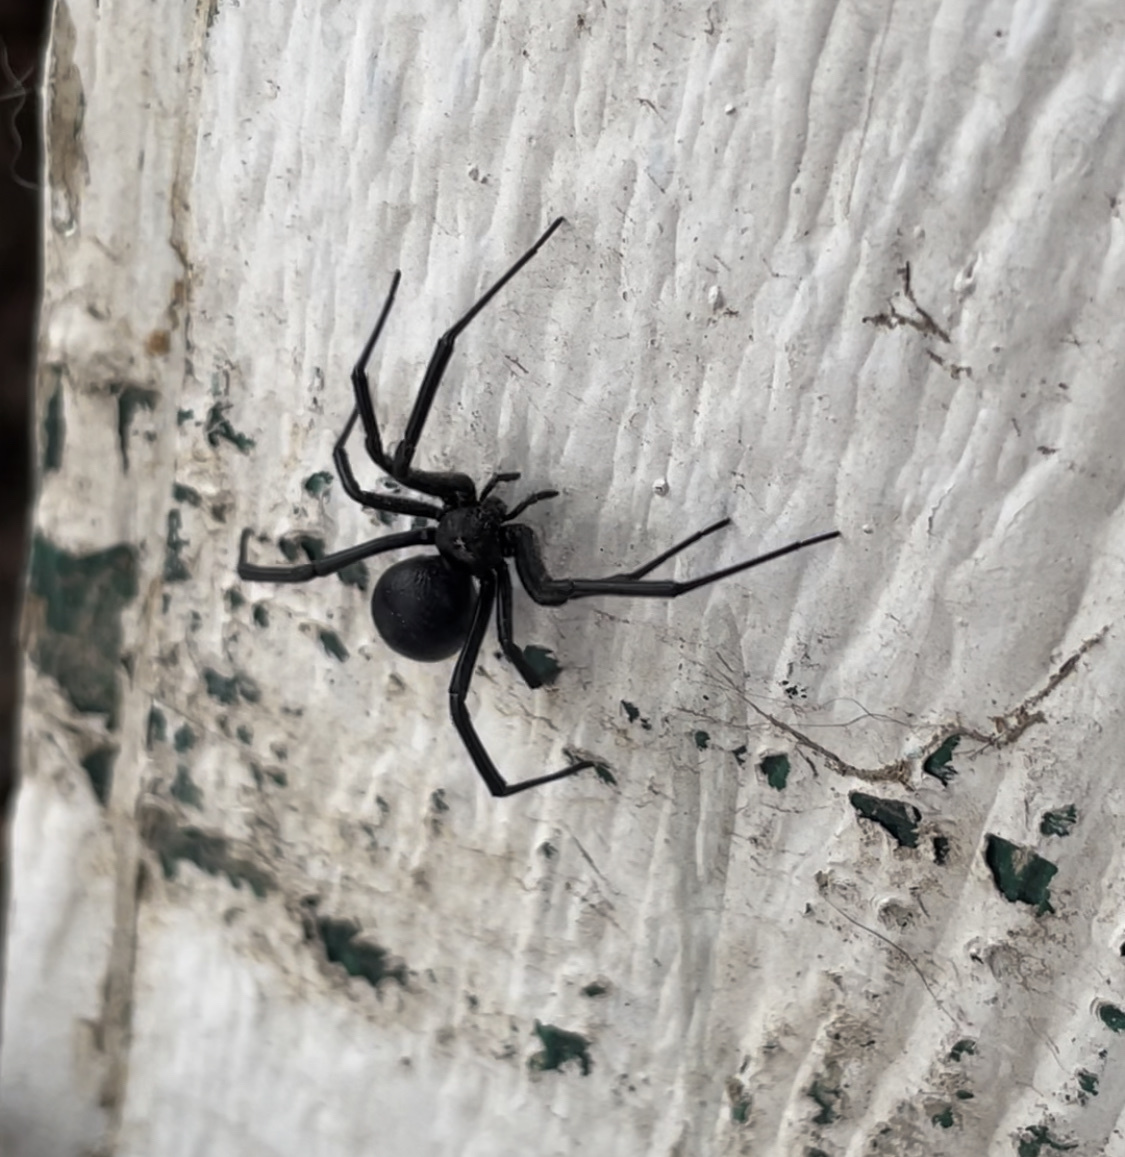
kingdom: Animalia
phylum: Arthropoda
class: Arachnida
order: Araneae
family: Theridiidae
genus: Latrodectus
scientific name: Latrodectus hesperus
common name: Western black widow
